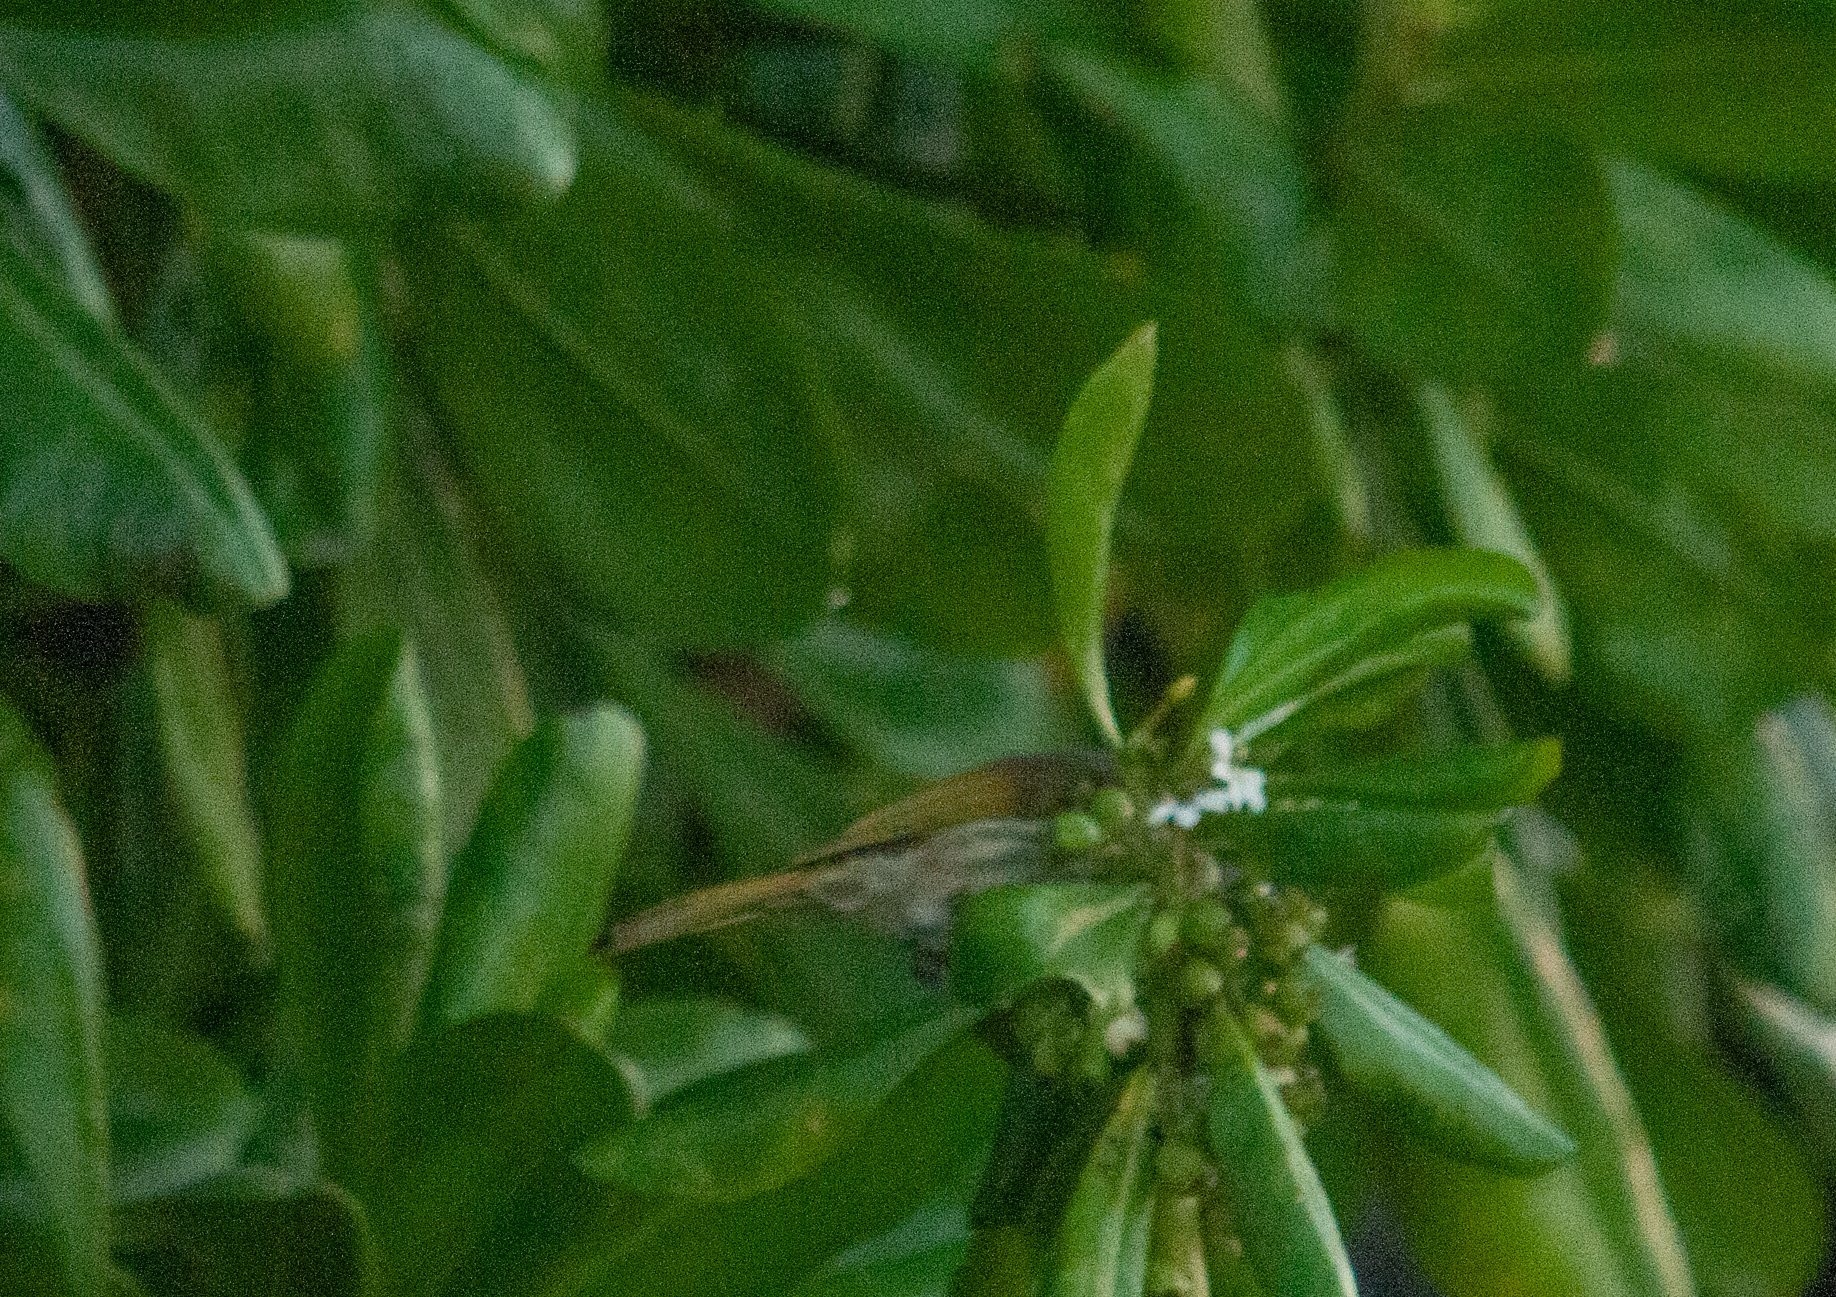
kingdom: Animalia
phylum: Chordata
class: Aves
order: Passeriformes
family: Meliphagidae
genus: Gavicalis
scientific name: Gavicalis versicolor
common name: Varied honeyeater
